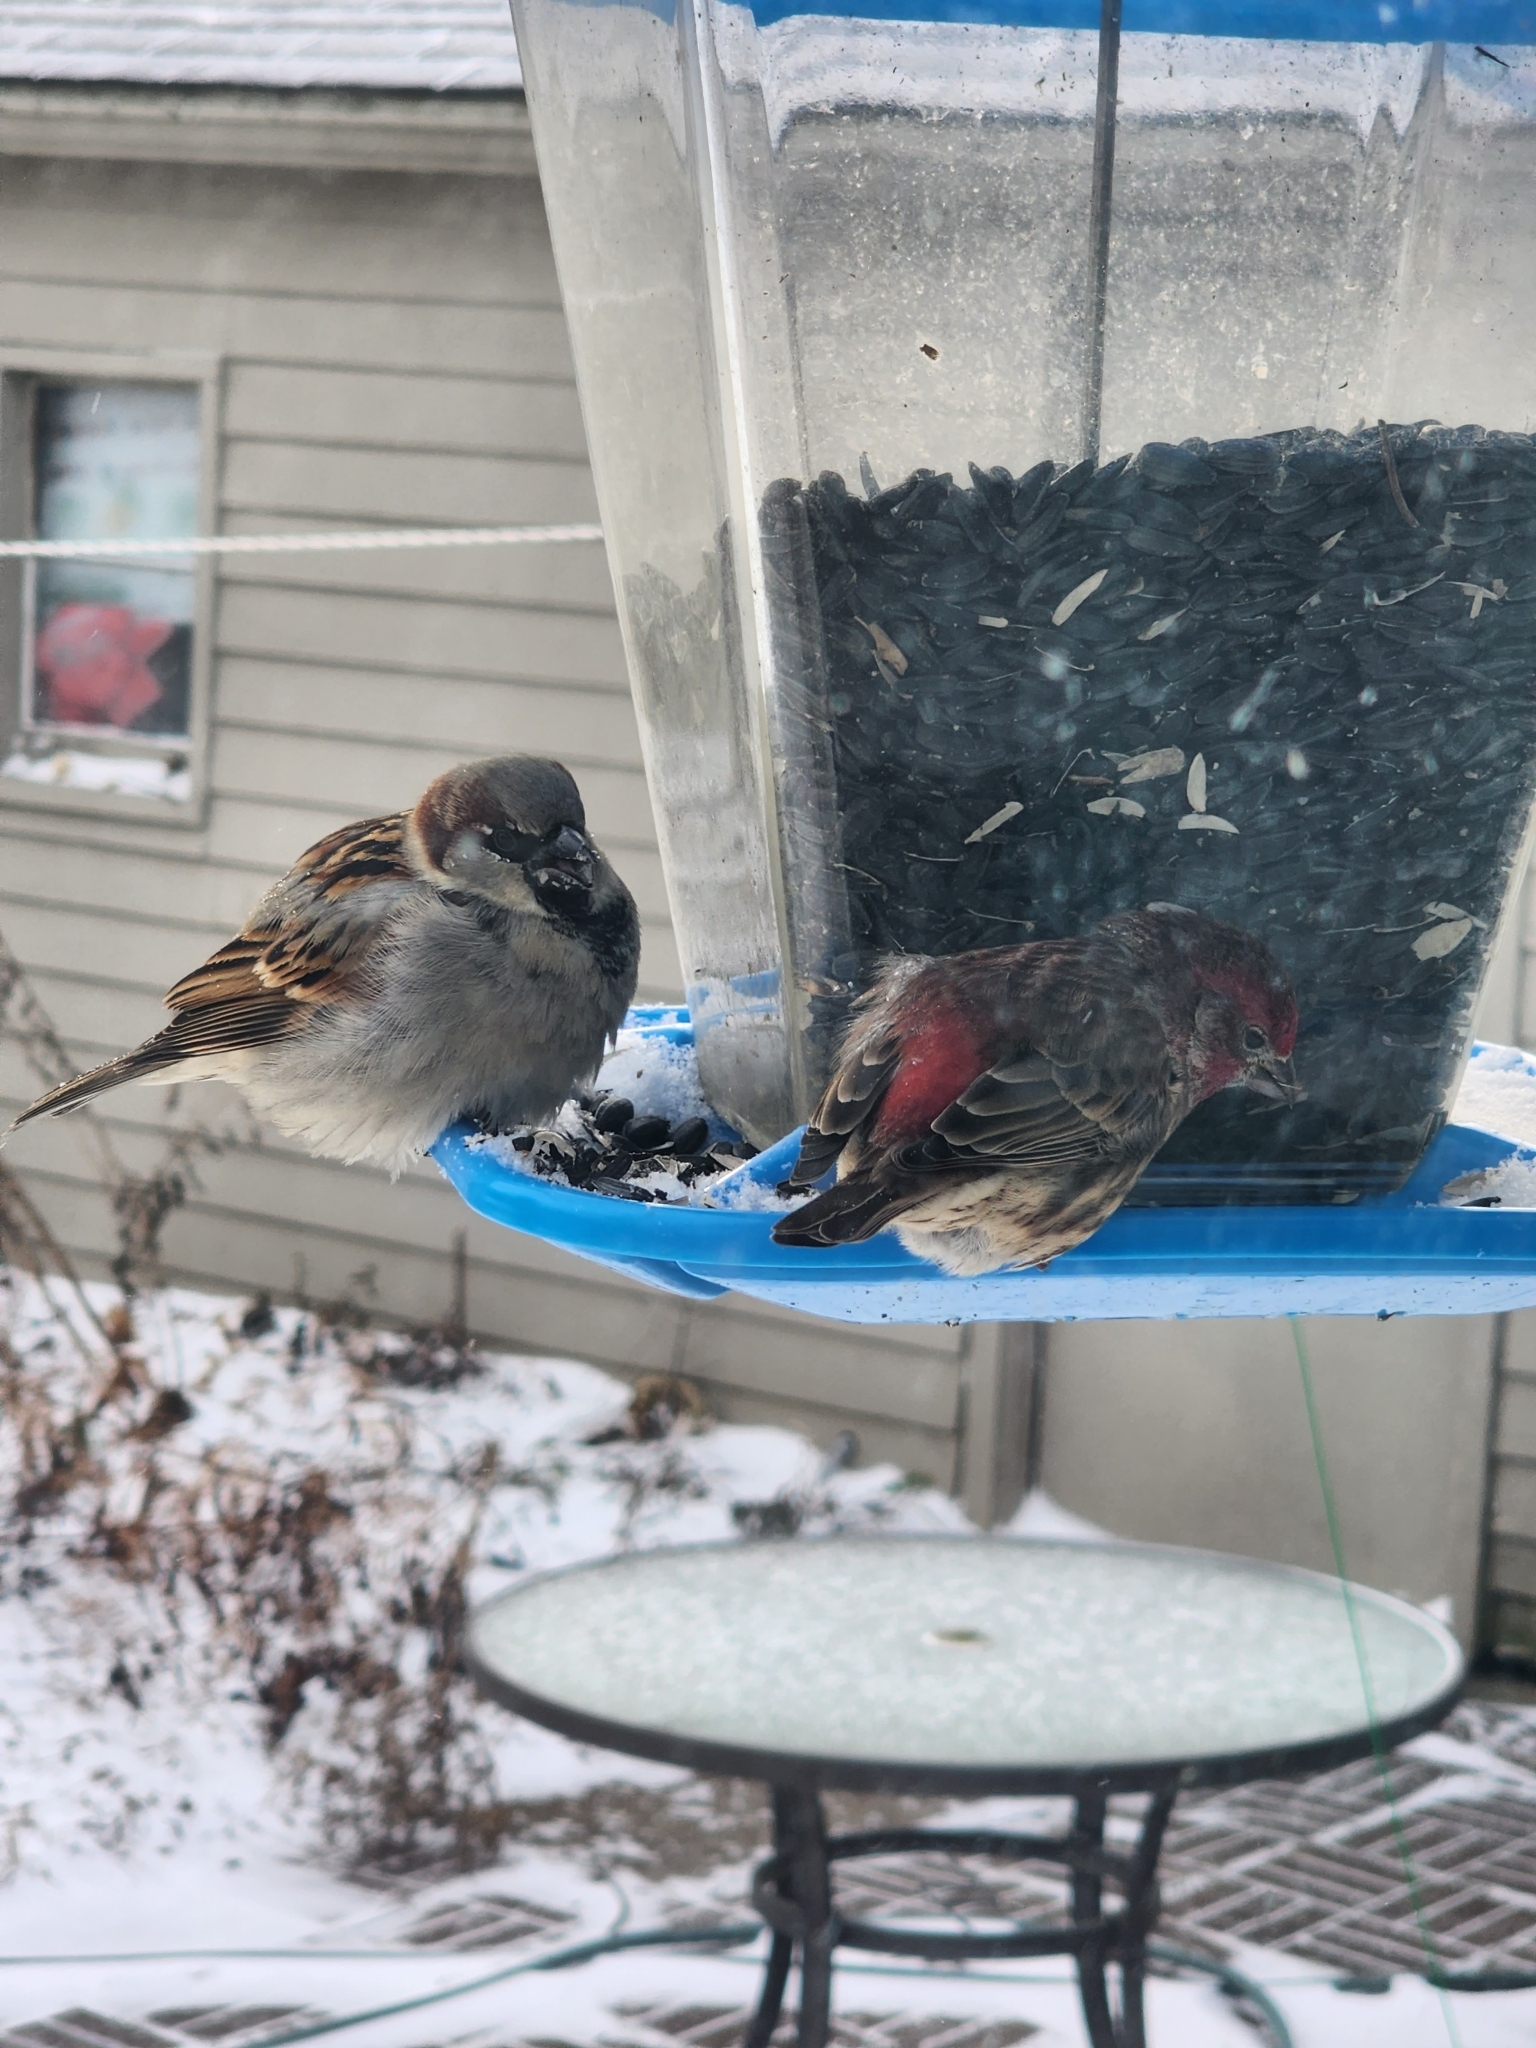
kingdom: Animalia
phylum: Chordata
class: Aves
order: Passeriformes
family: Passeridae
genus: Passer
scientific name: Passer domesticus
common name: House sparrow
